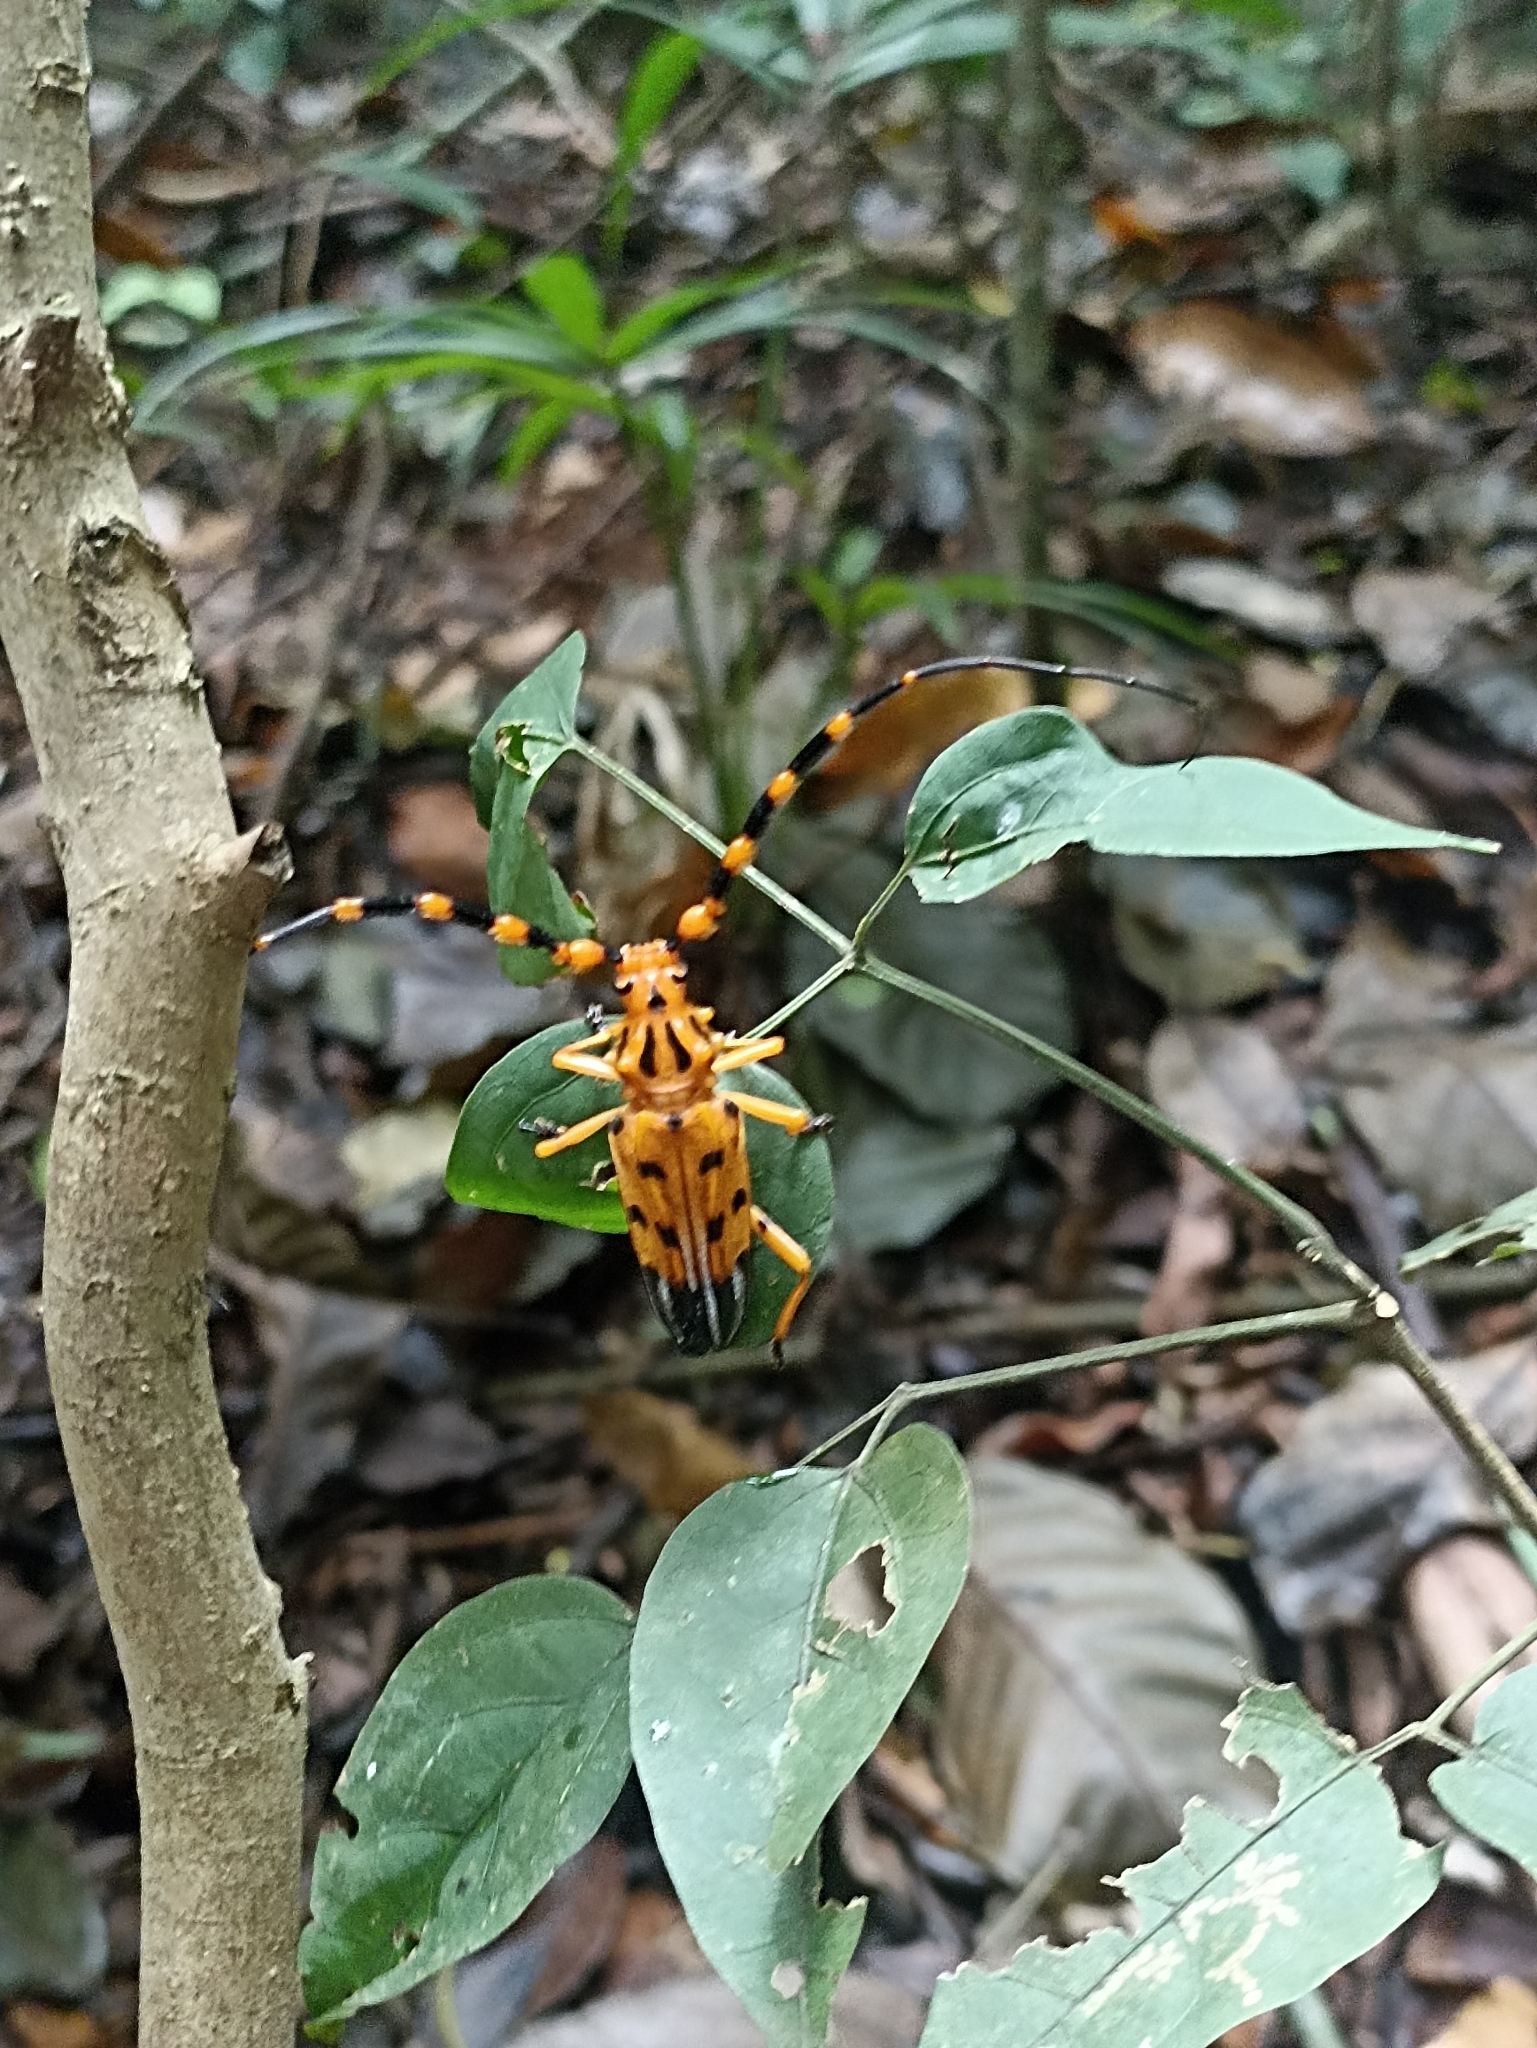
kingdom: Animalia
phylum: Arthropoda
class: Insecta
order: Coleoptera
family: Cerambycidae
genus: Batus
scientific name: Batus latreillei
